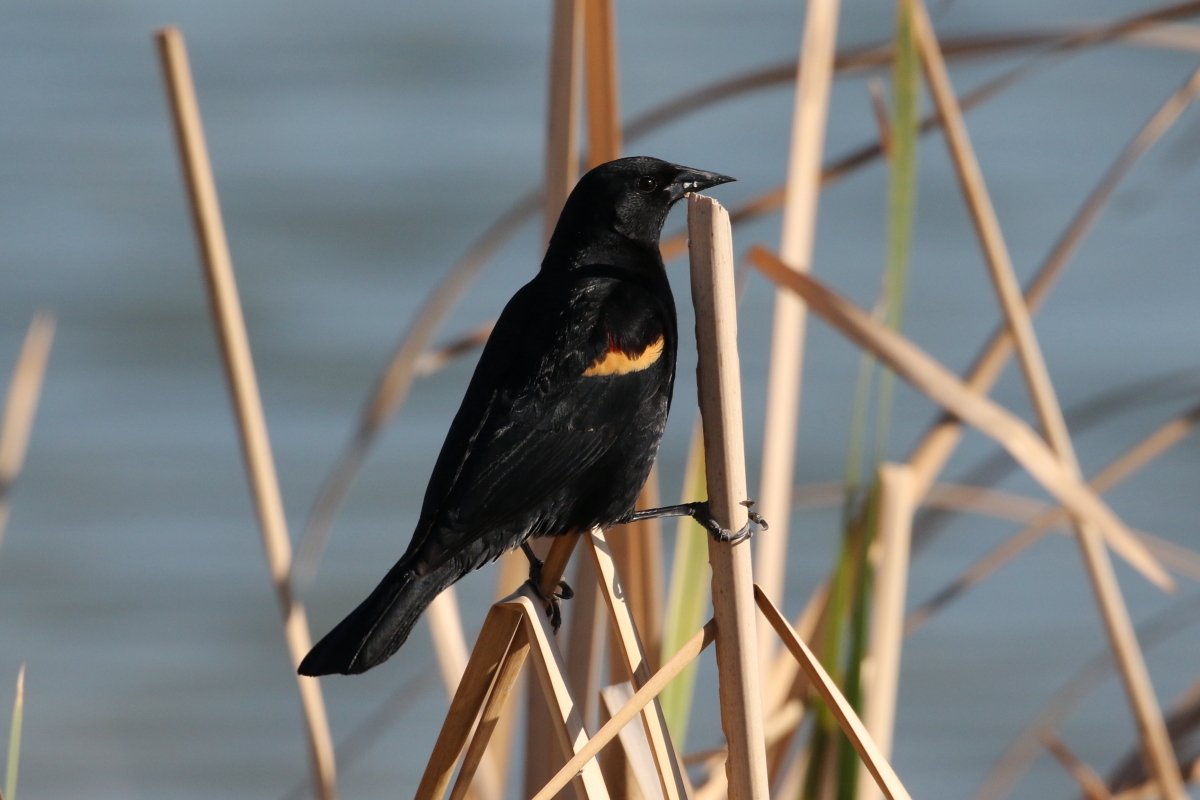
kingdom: Animalia
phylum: Chordata
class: Aves
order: Passeriformes
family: Icteridae
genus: Agelaius
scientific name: Agelaius phoeniceus
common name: Red-winged blackbird
